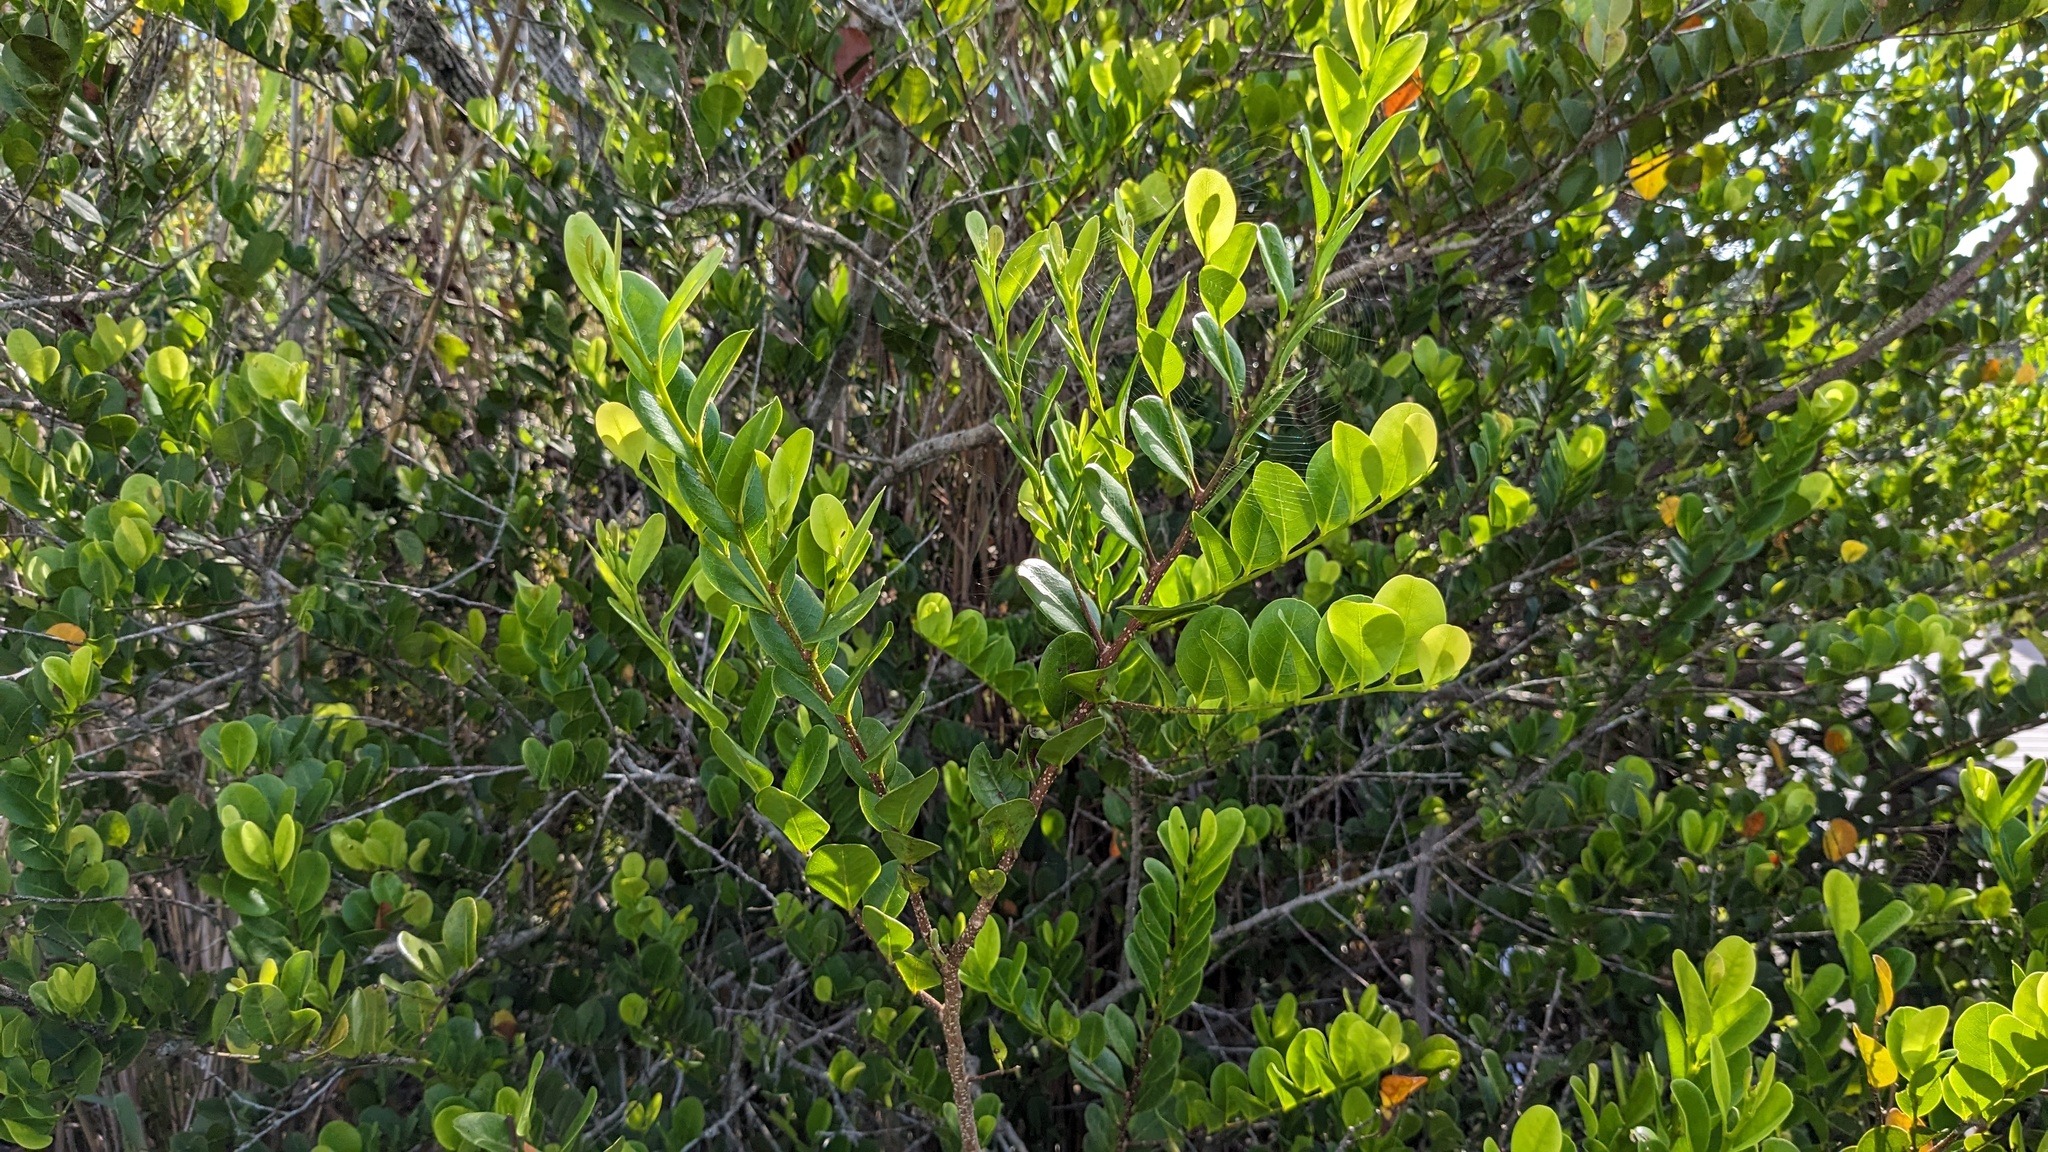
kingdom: Plantae
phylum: Tracheophyta
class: Magnoliopsida
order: Malpighiales
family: Chrysobalanaceae
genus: Chrysobalanus
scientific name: Chrysobalanus icaco
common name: Coco plum
